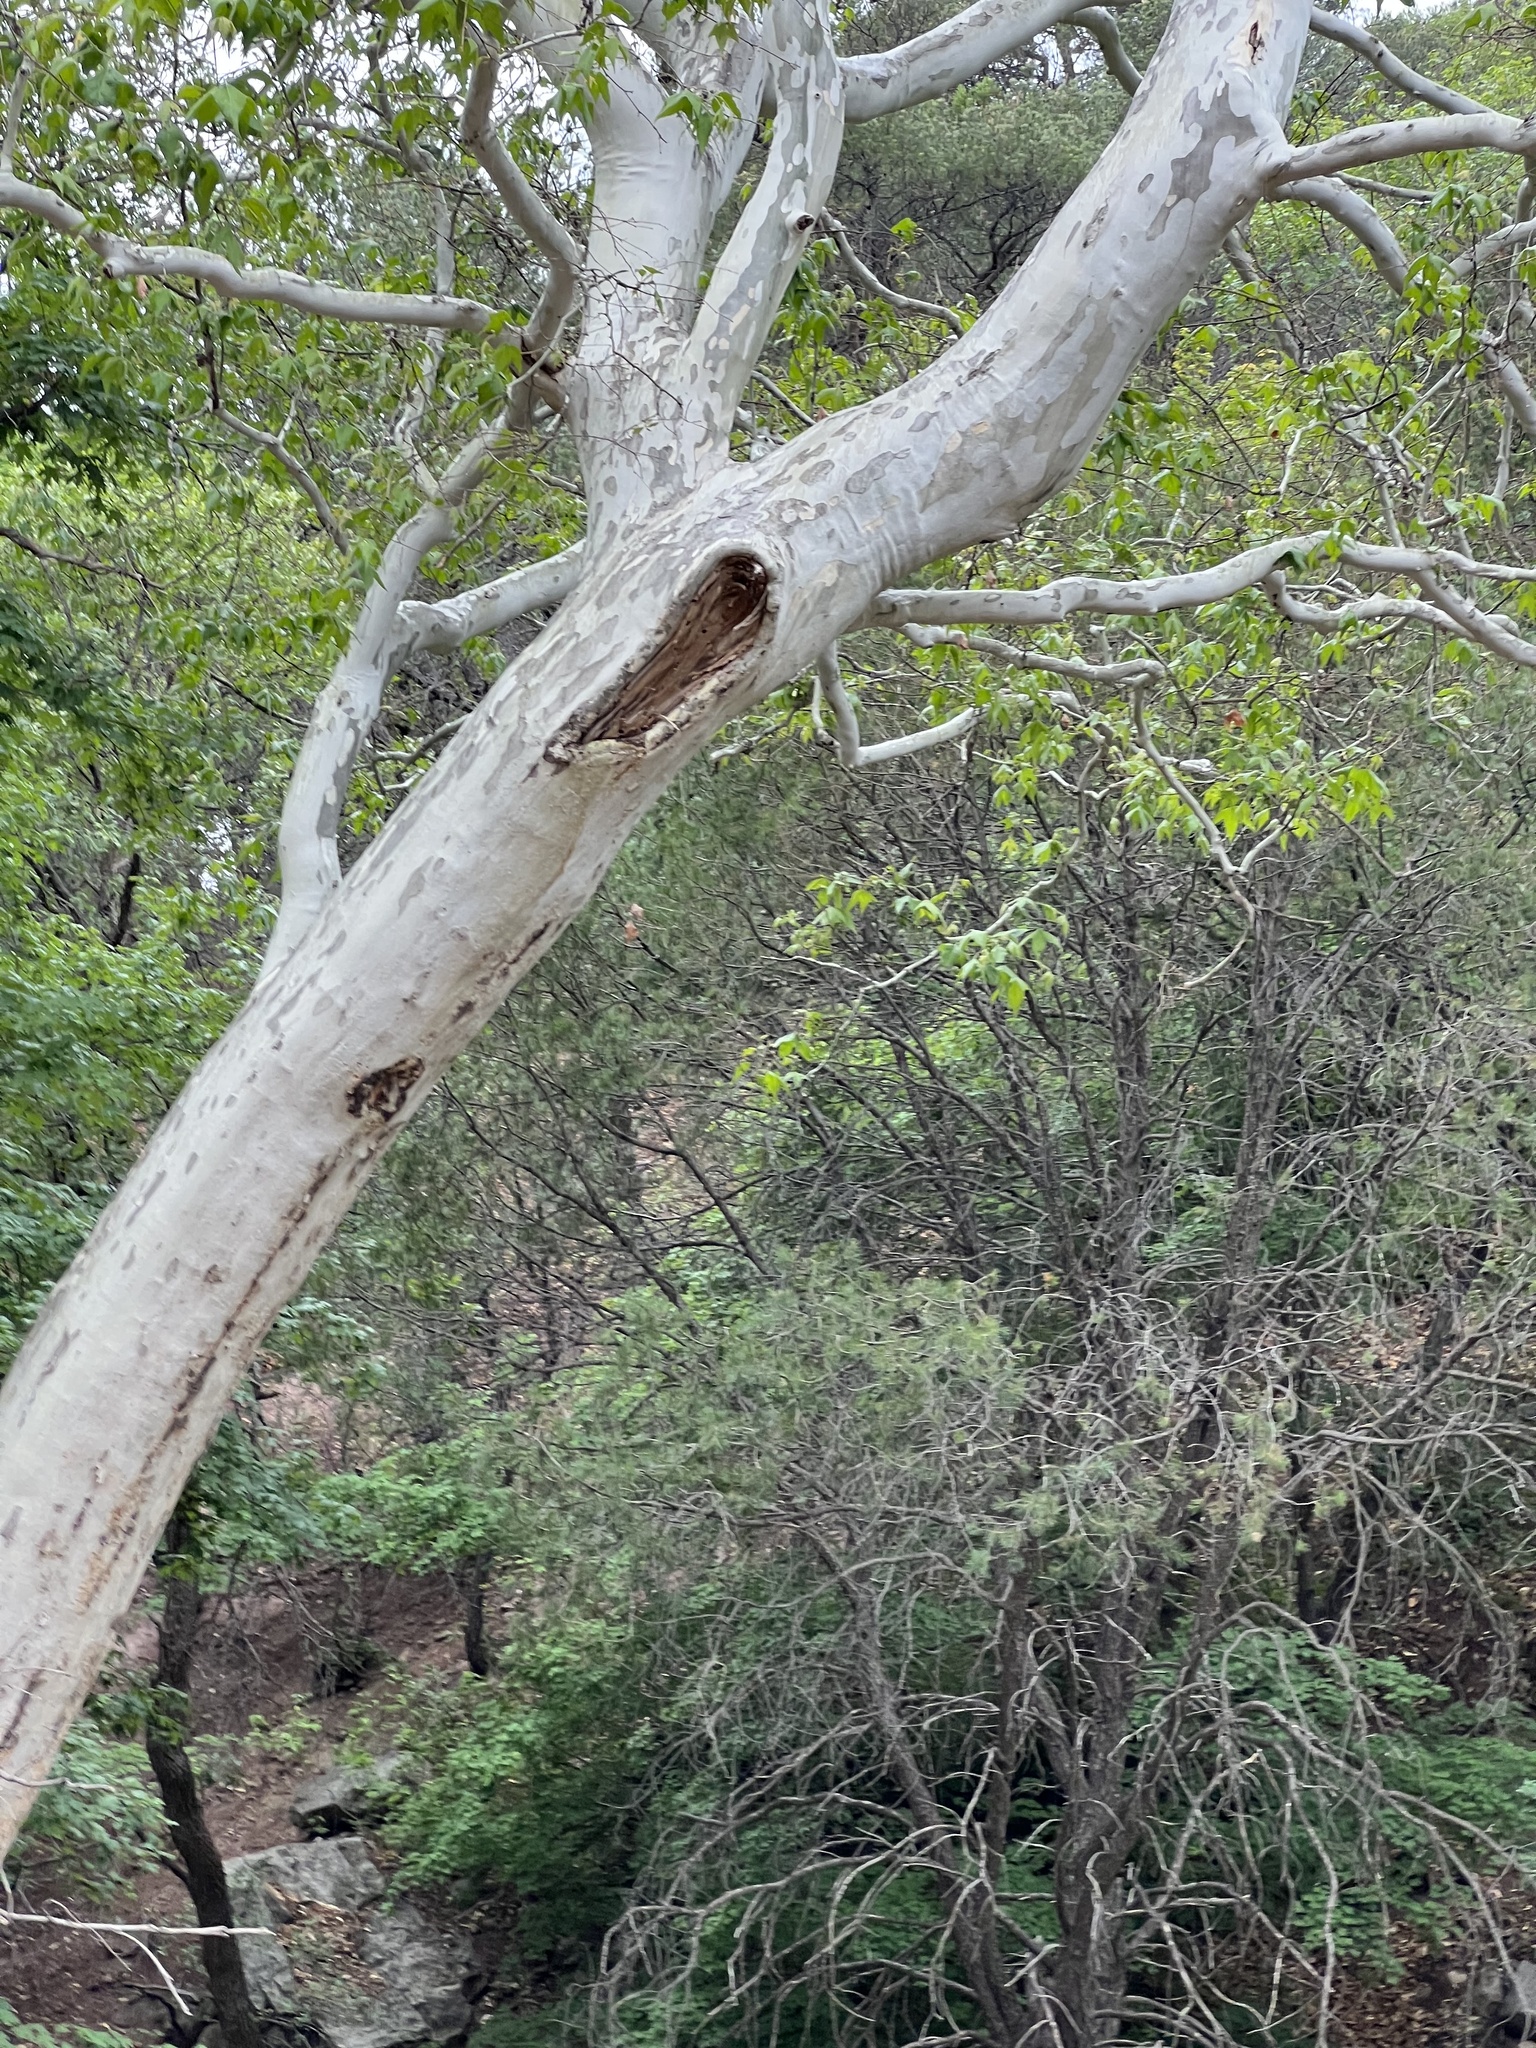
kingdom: Plantae
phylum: Tracheophyta
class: Magnoliopsida
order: Proteales
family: Platanaceae
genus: Platanus
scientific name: Platanus wrightii
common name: Arizona sycamore
